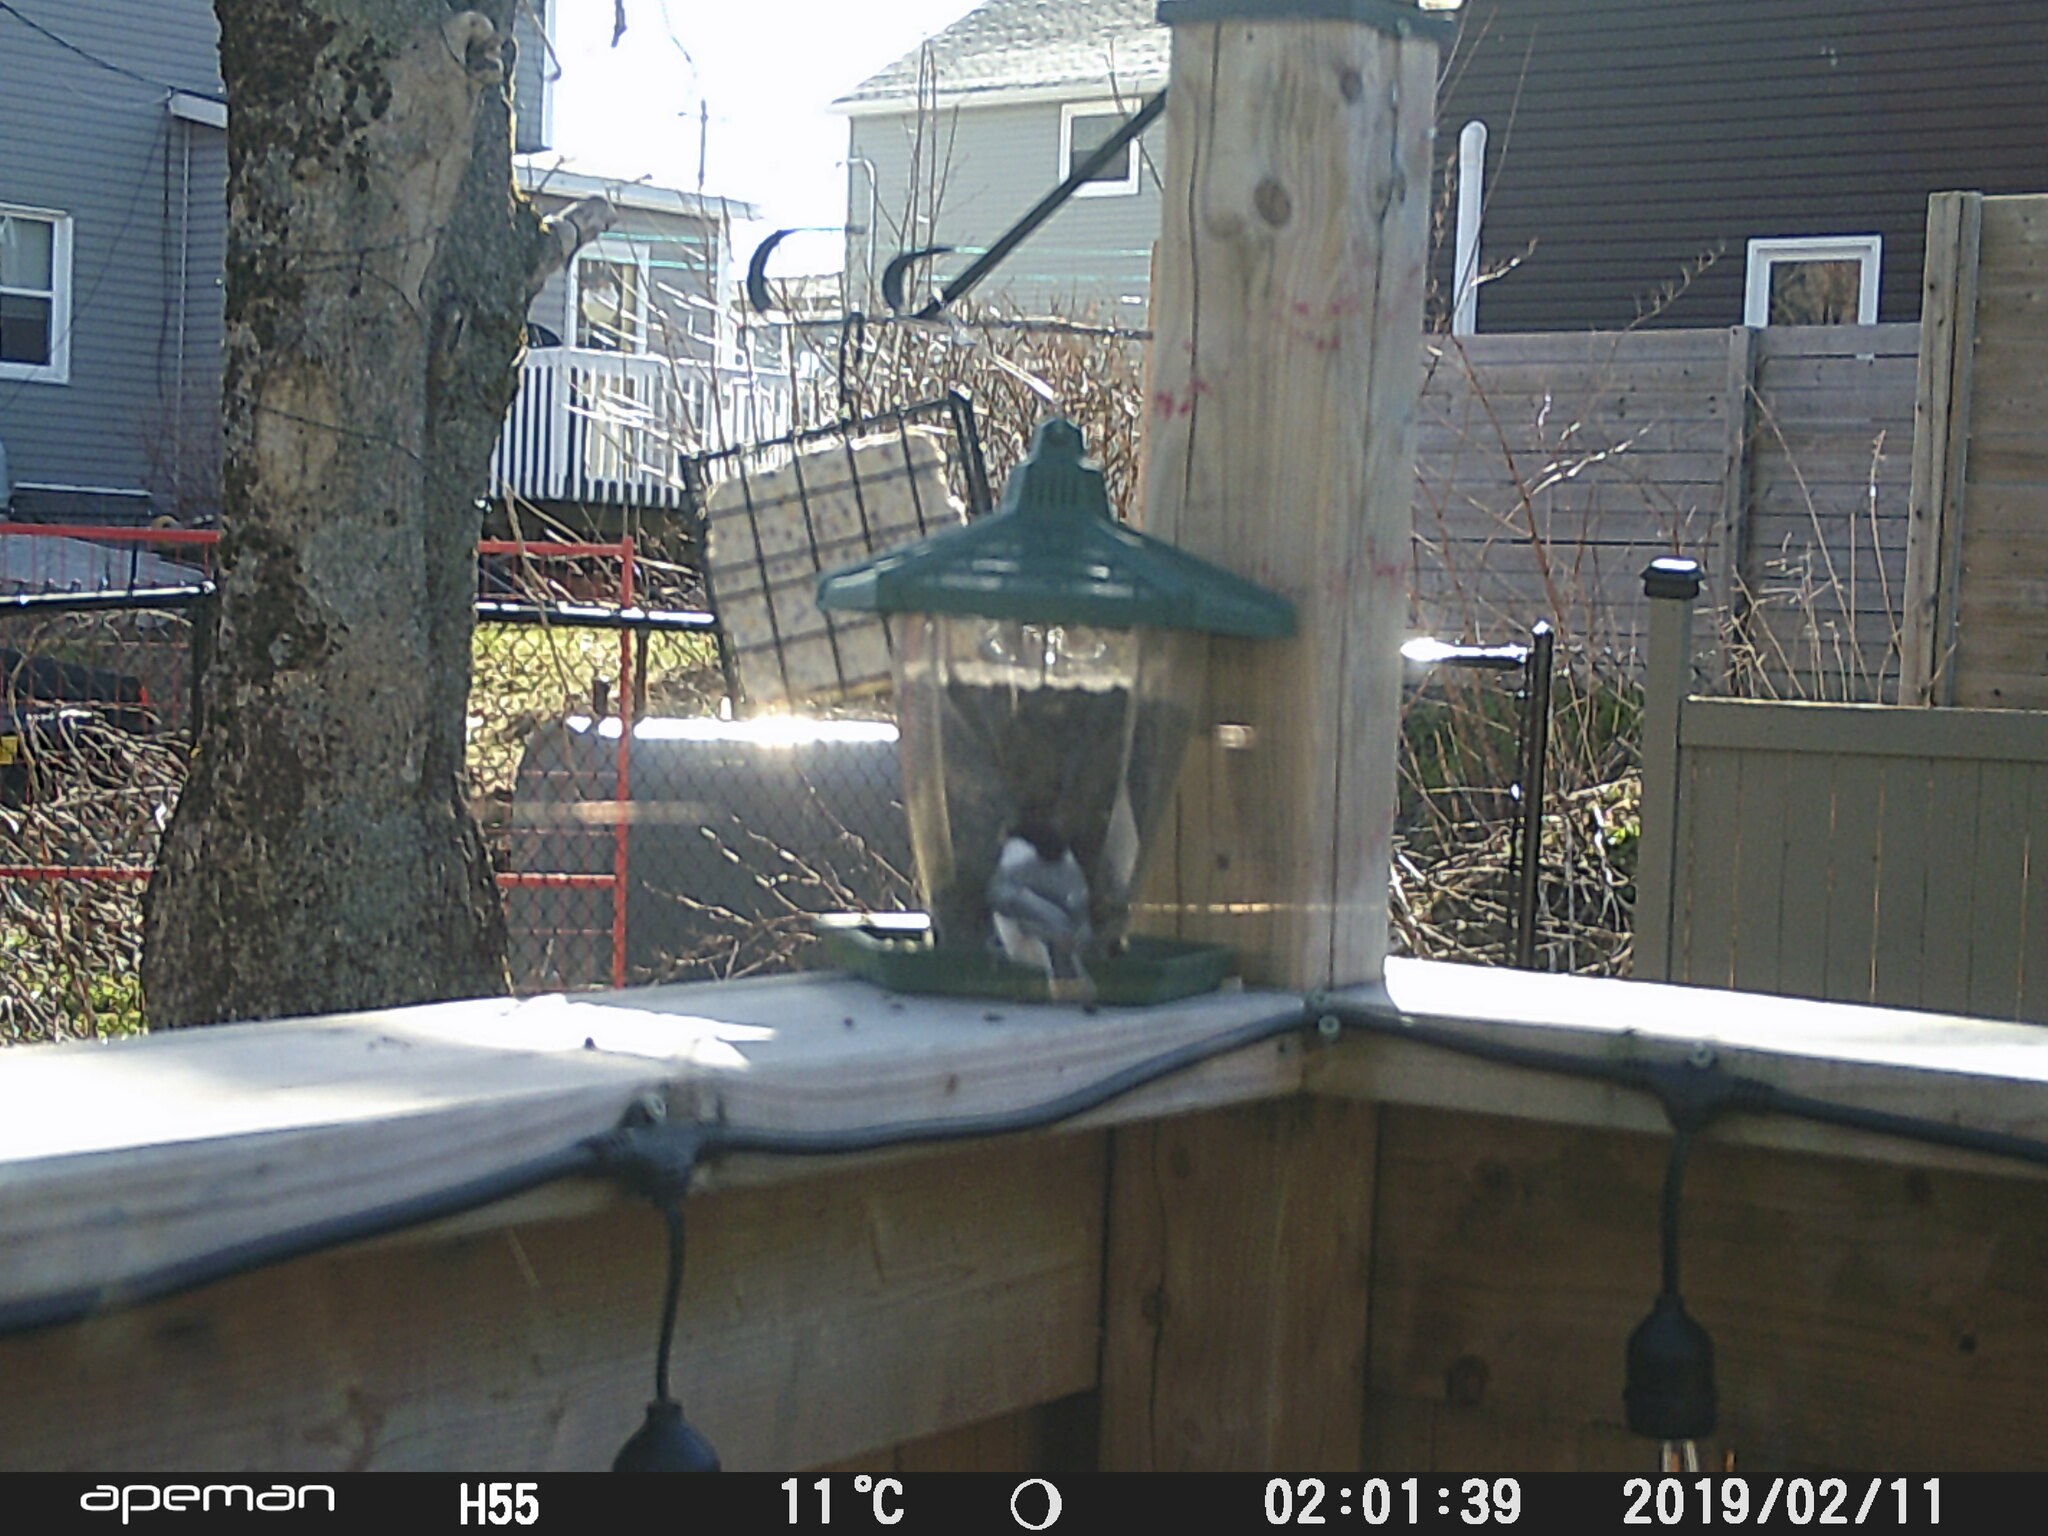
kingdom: Animalia
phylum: Chordata
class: Aves
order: Passeriformes
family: Paridae
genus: Poecile
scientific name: Poecile atricapillus
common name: Black-capped chickadee
